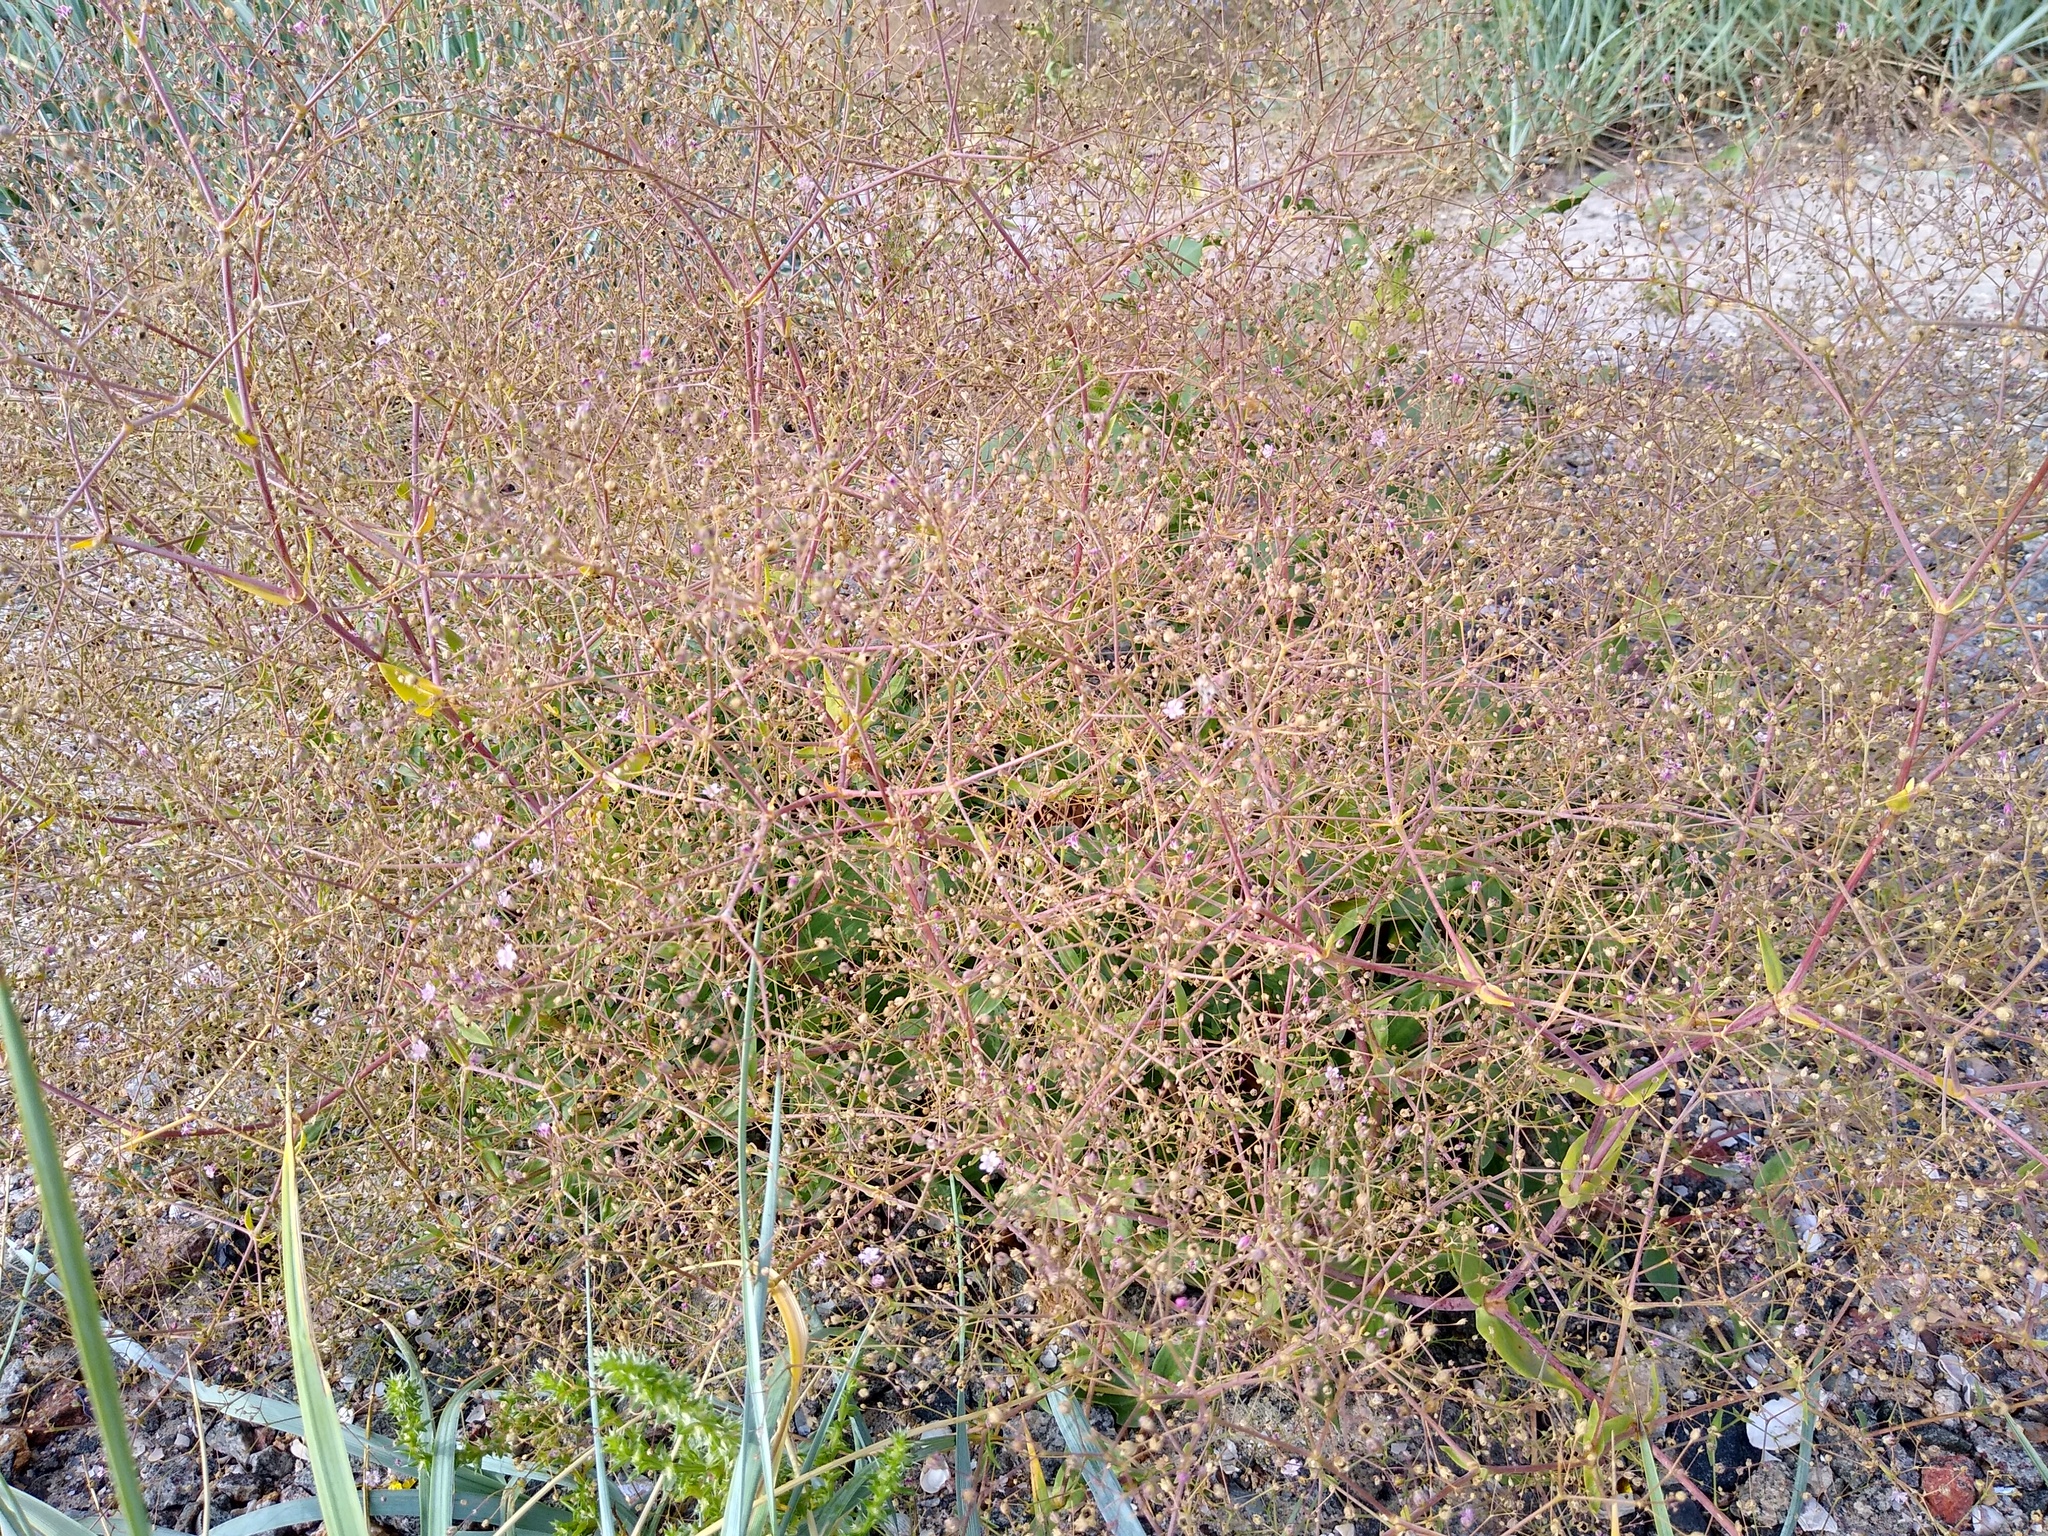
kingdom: Plantae
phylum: Tracheophyta
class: Magnoliopsida
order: Caryophyllales
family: Caryophyllaceae
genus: Gypsophila
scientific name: Gypsophila perfoliata
